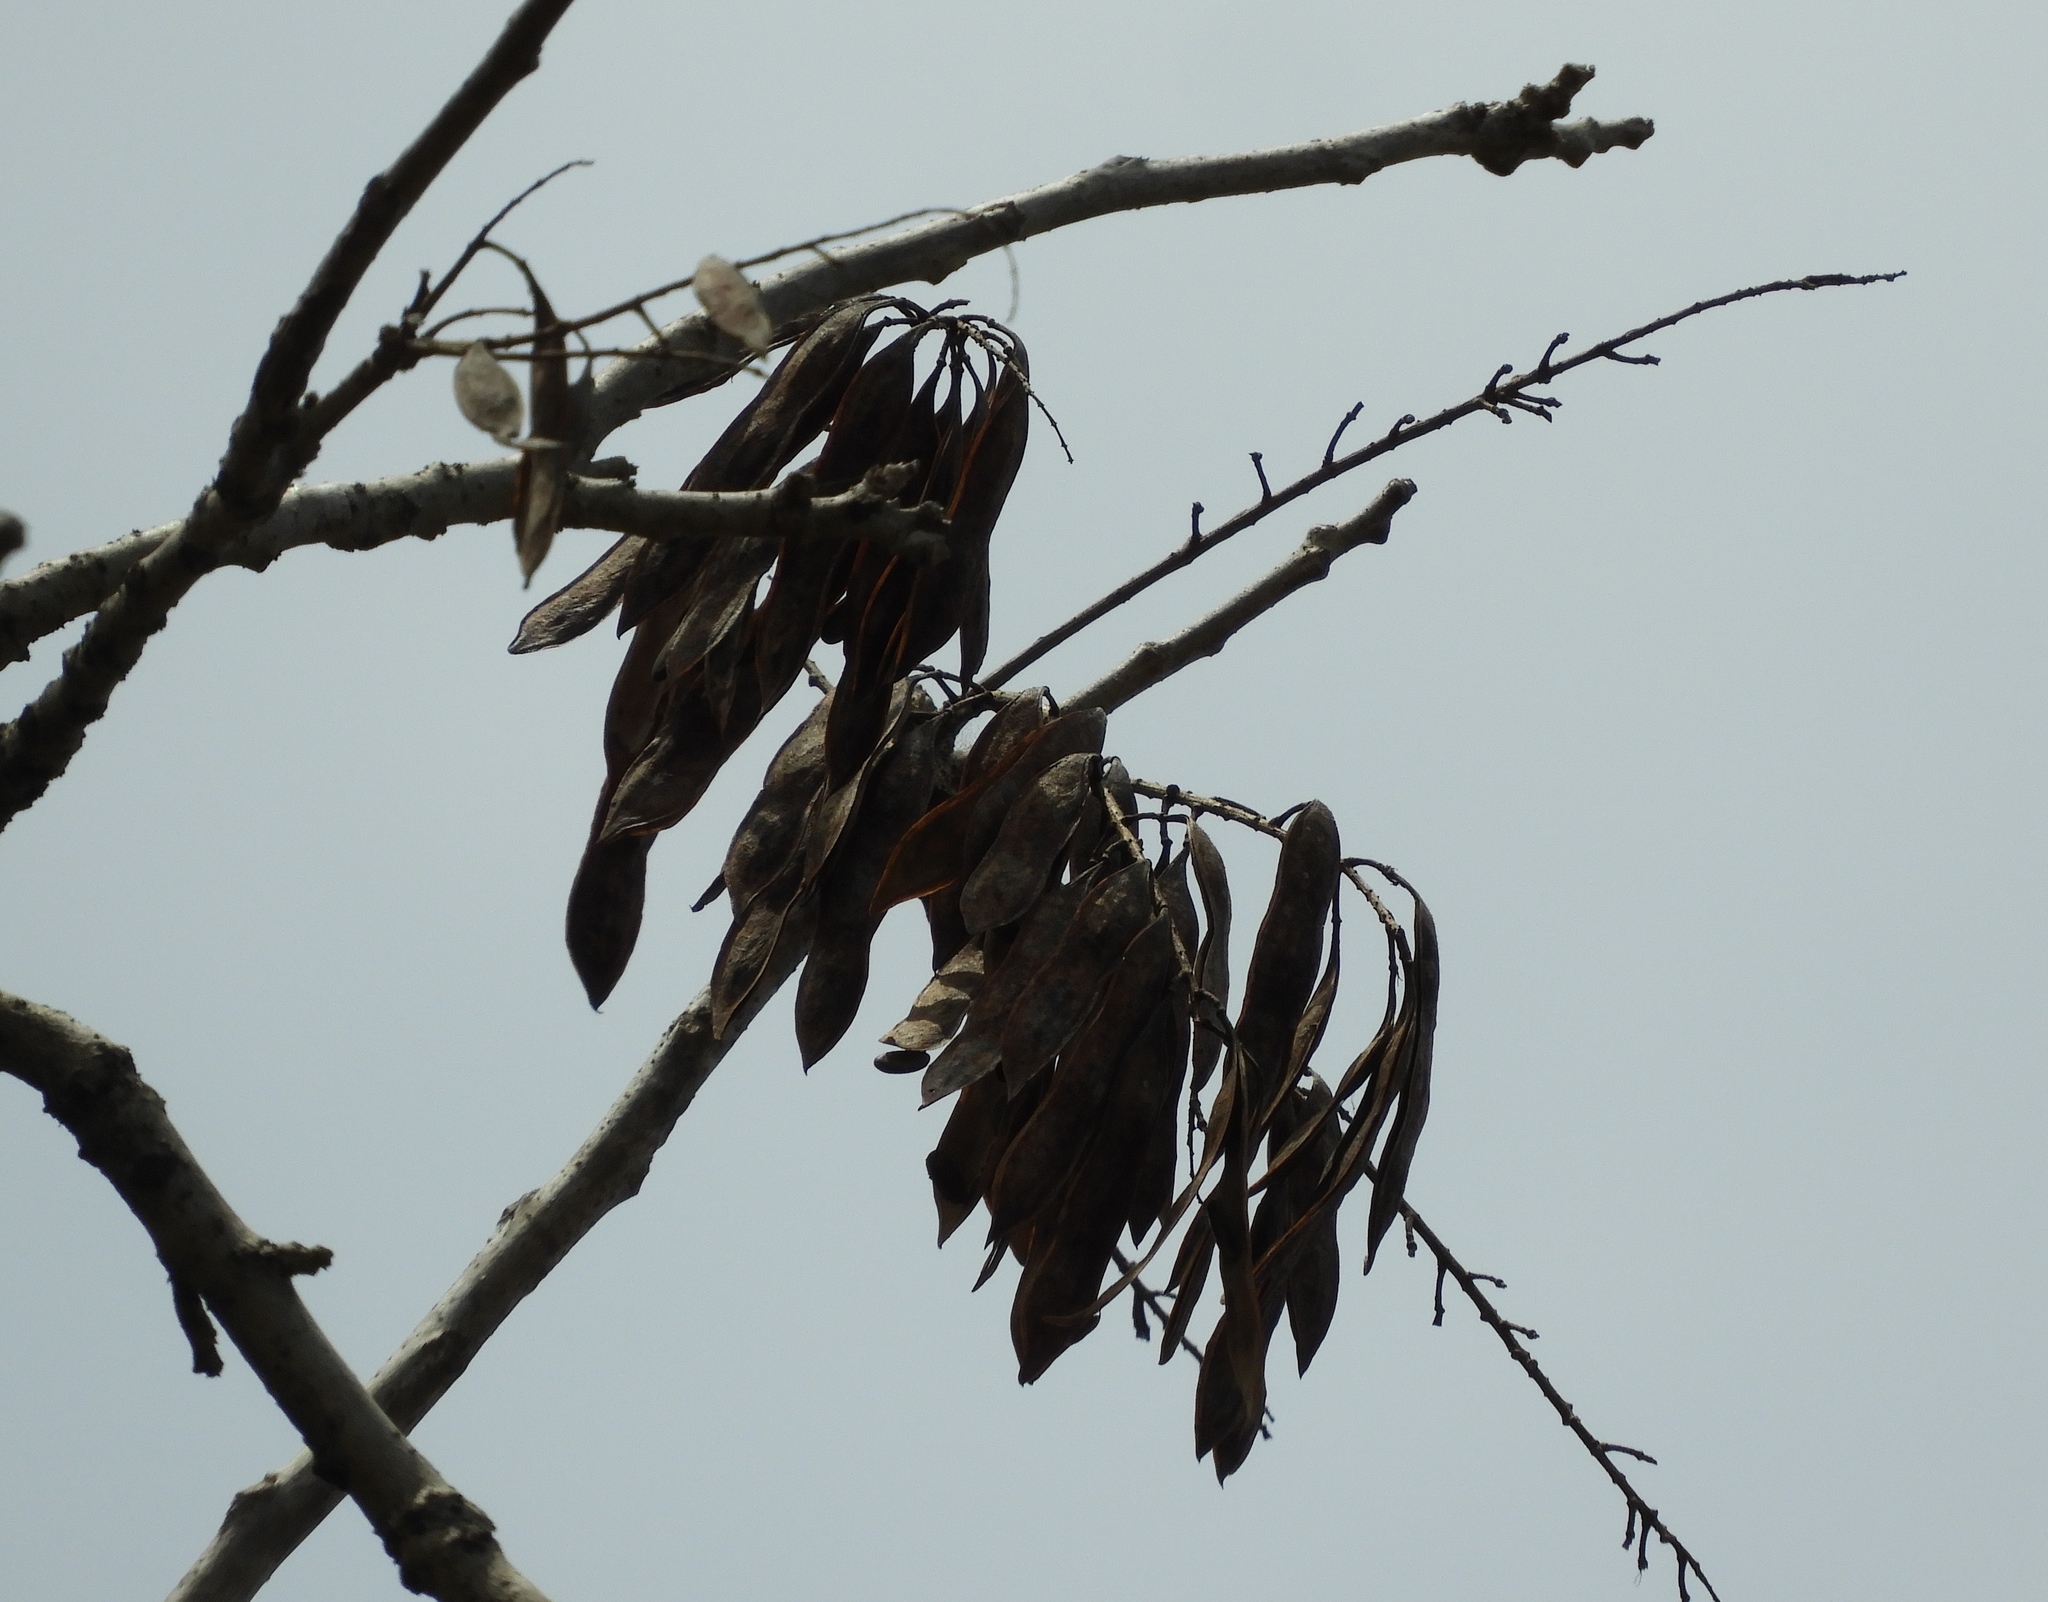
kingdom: Plantae
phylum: Tracheophyta
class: Magnoliopsida
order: Fabales
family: Fabaceae
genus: Conzattia
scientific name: Conzattia sericea
